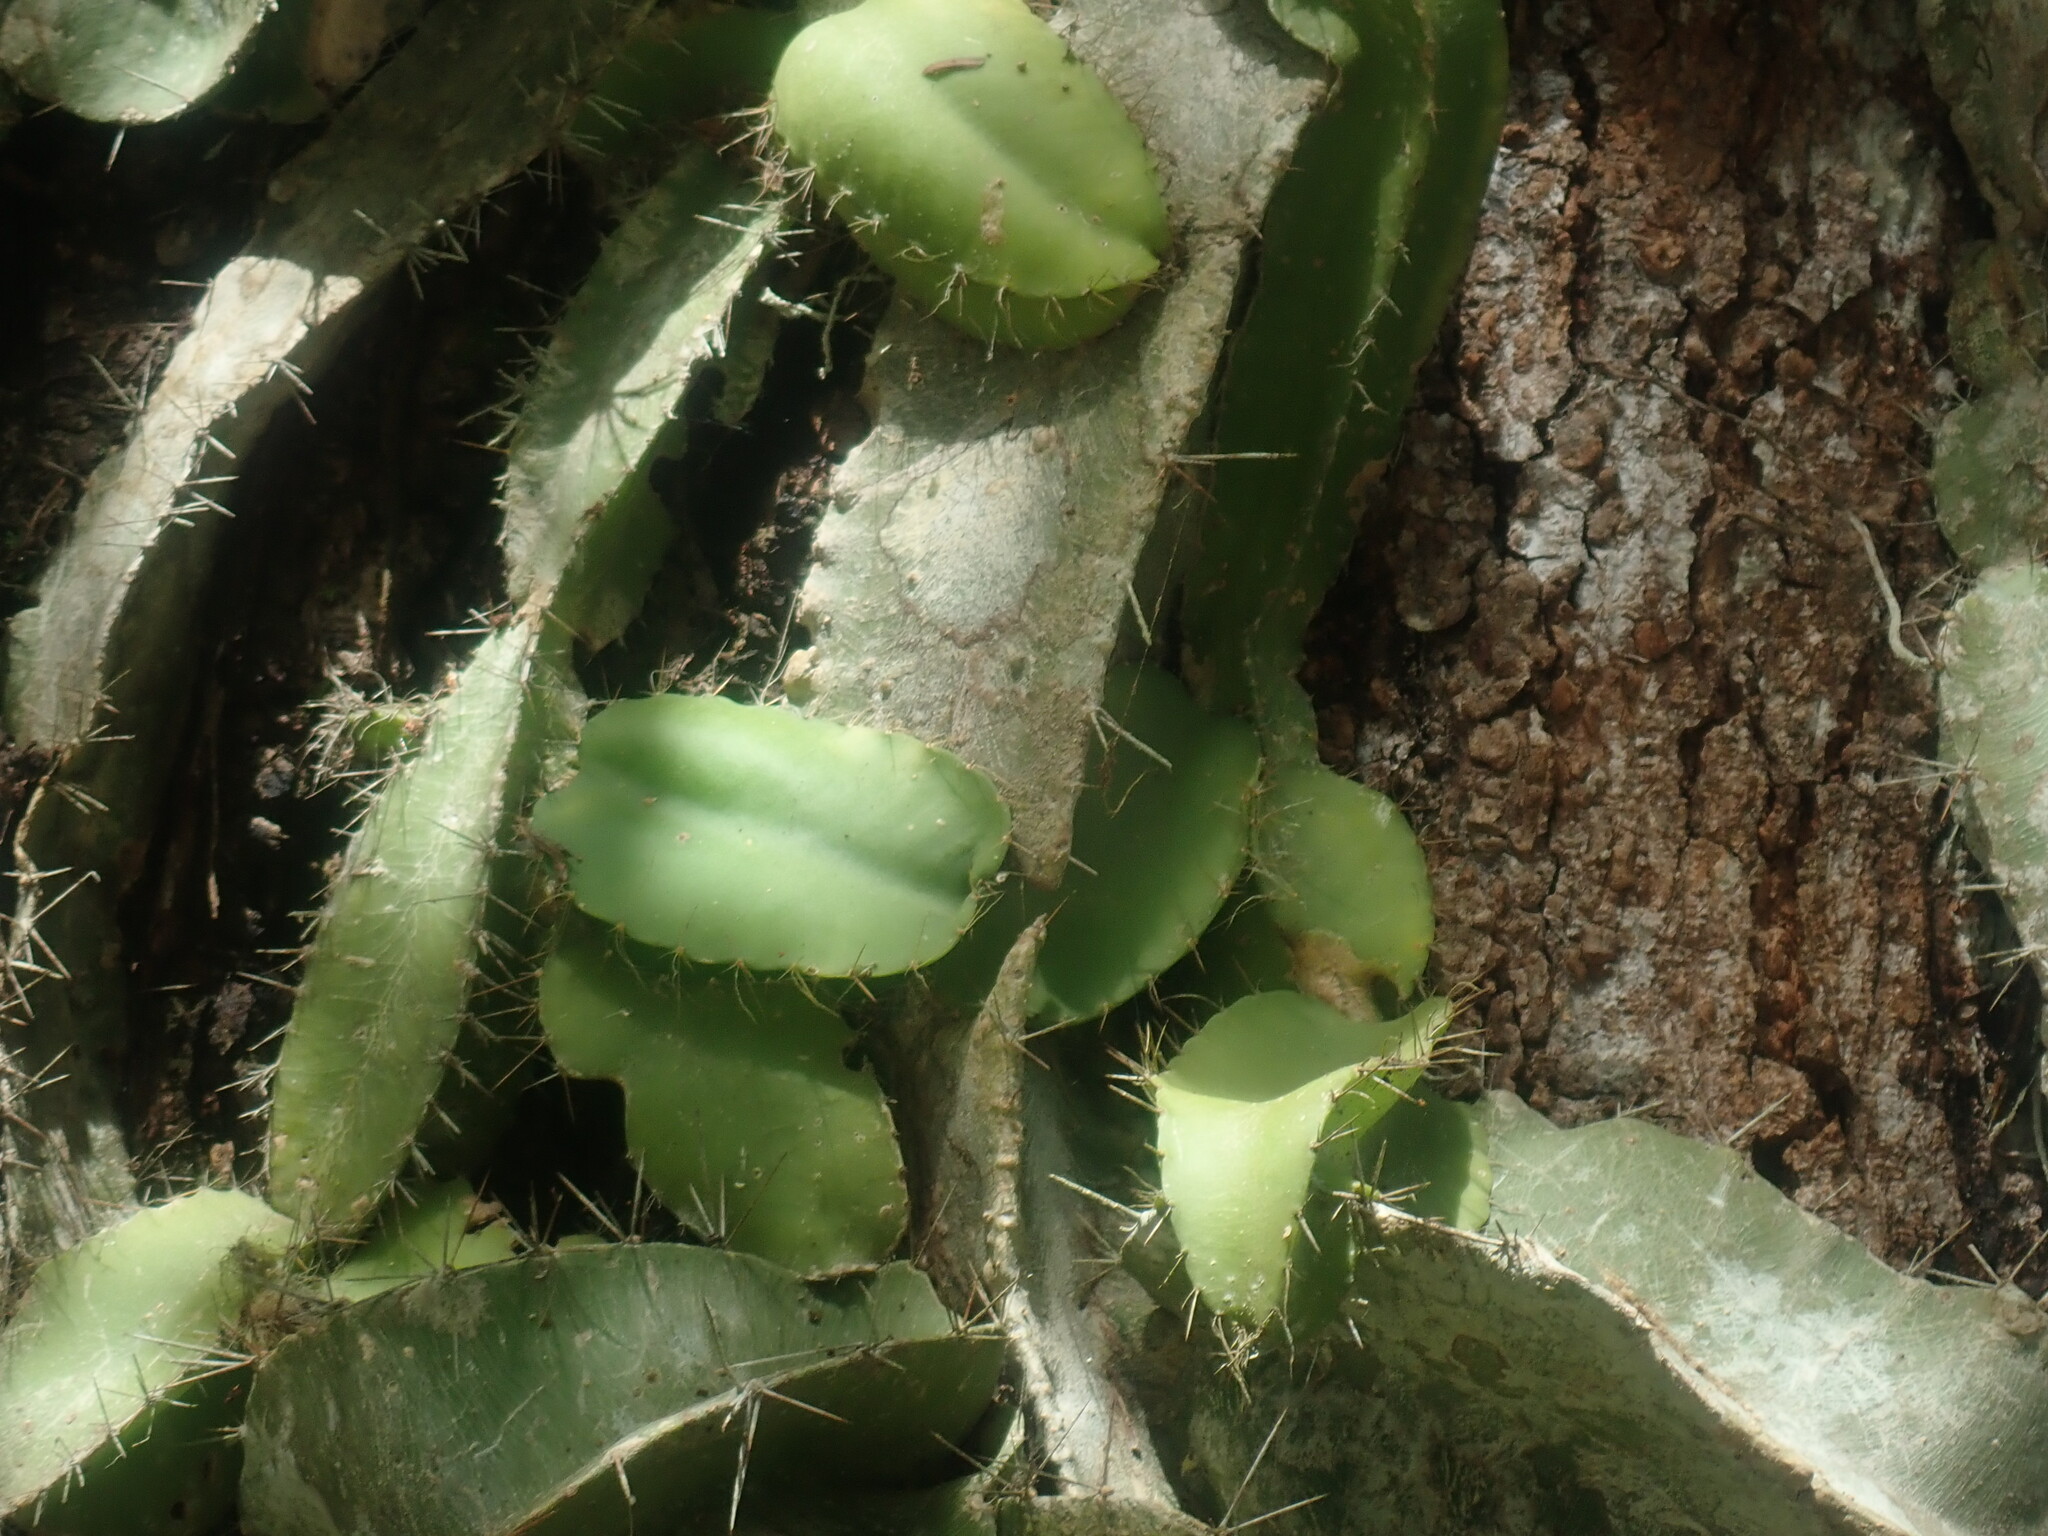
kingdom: Plantae
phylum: Tracheophyta
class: Magnoliopsida
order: Caryophyllales
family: Cactaceae
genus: Deamia
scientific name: Deamia testudo
